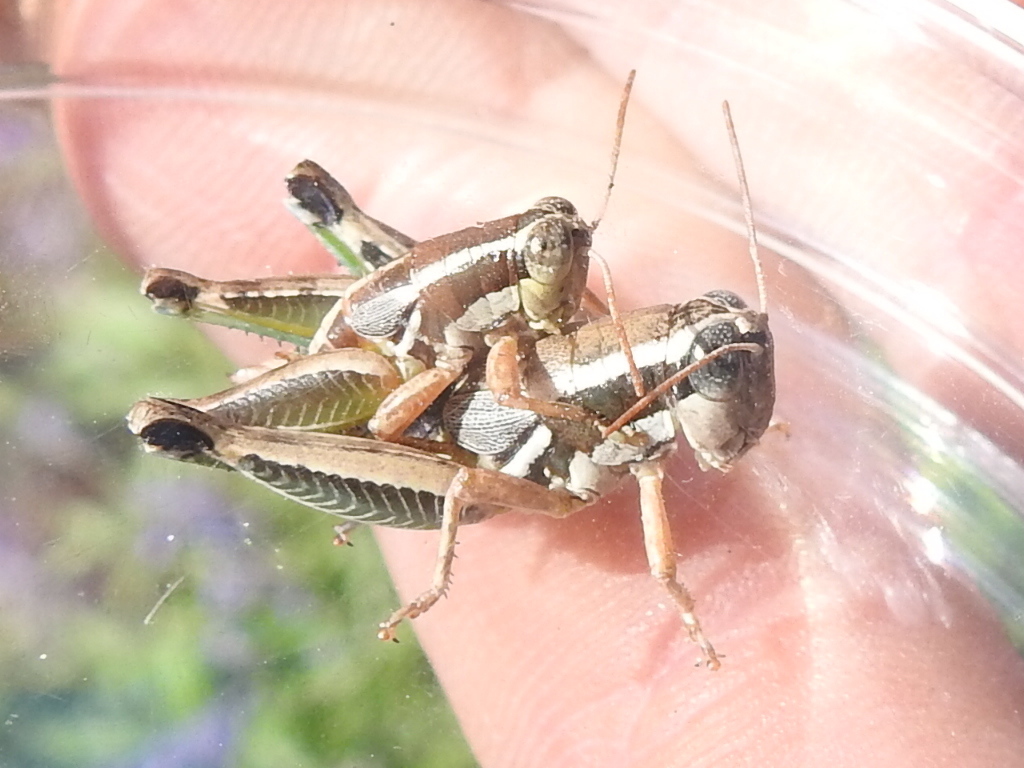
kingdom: Animalia
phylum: Arthropoda
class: Insecta
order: Orthoptera
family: Acrididae
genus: Phaedrotettix
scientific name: Phaedrotettix dumicolus
